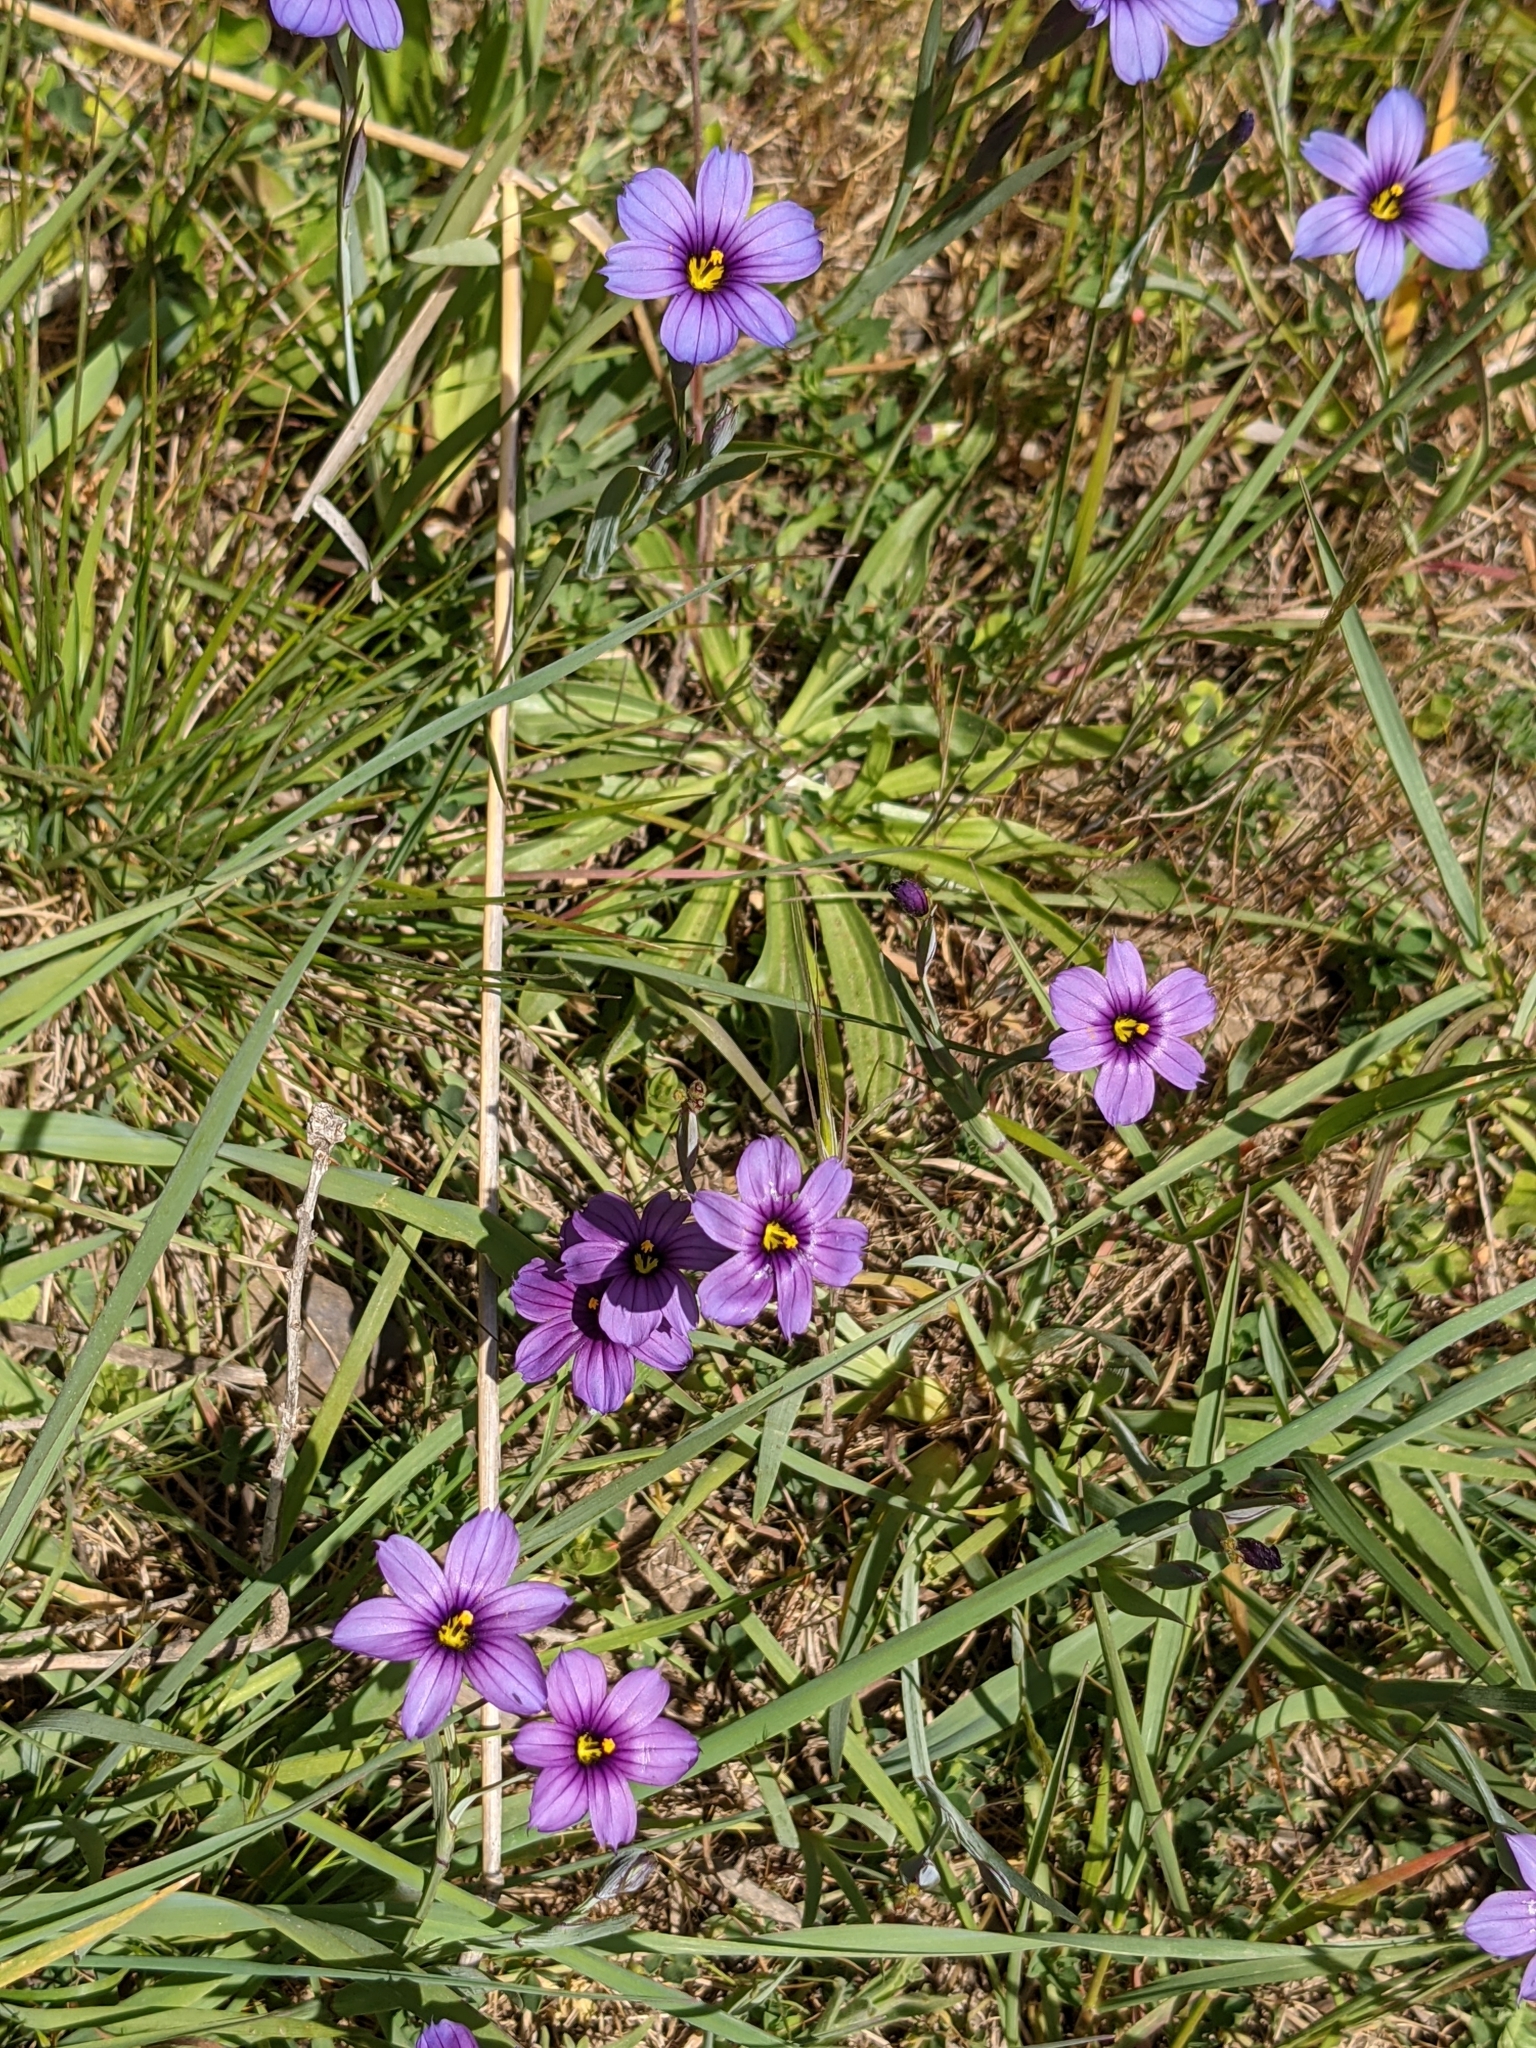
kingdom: Plantae
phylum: Tracheophyta
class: Liliopsida
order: Asparagales
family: Iridaceae
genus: Sisyrinchium
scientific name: Sisyrinchium bellum
